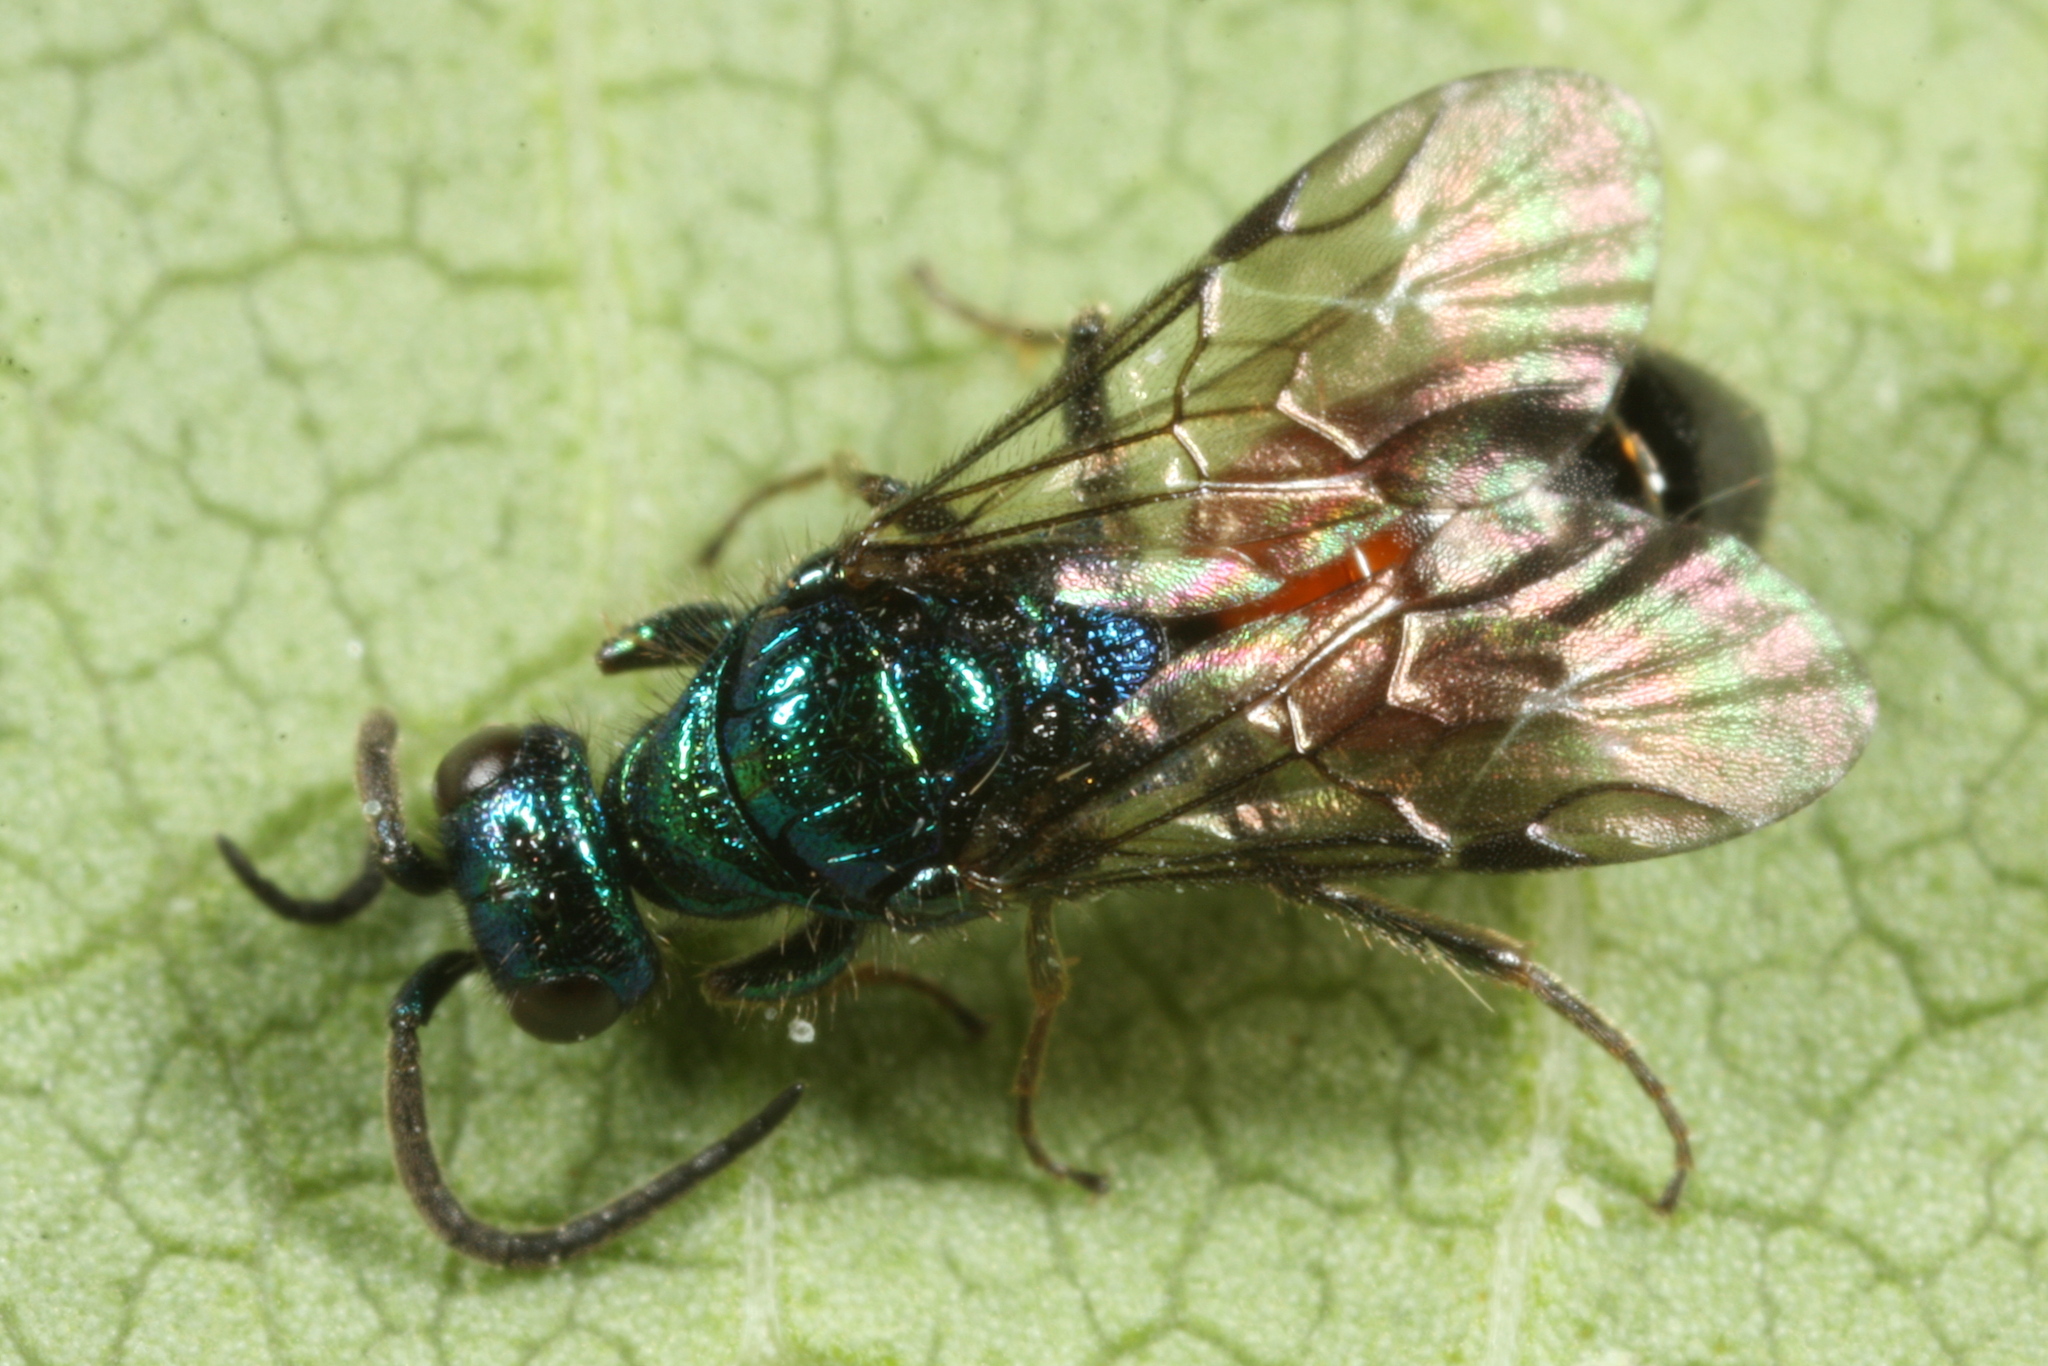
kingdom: Animalia
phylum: Arthropoda
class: Insecta
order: Hymenoptera
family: Chrysididae
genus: Cleptes
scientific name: Cleptes striatipleuris
